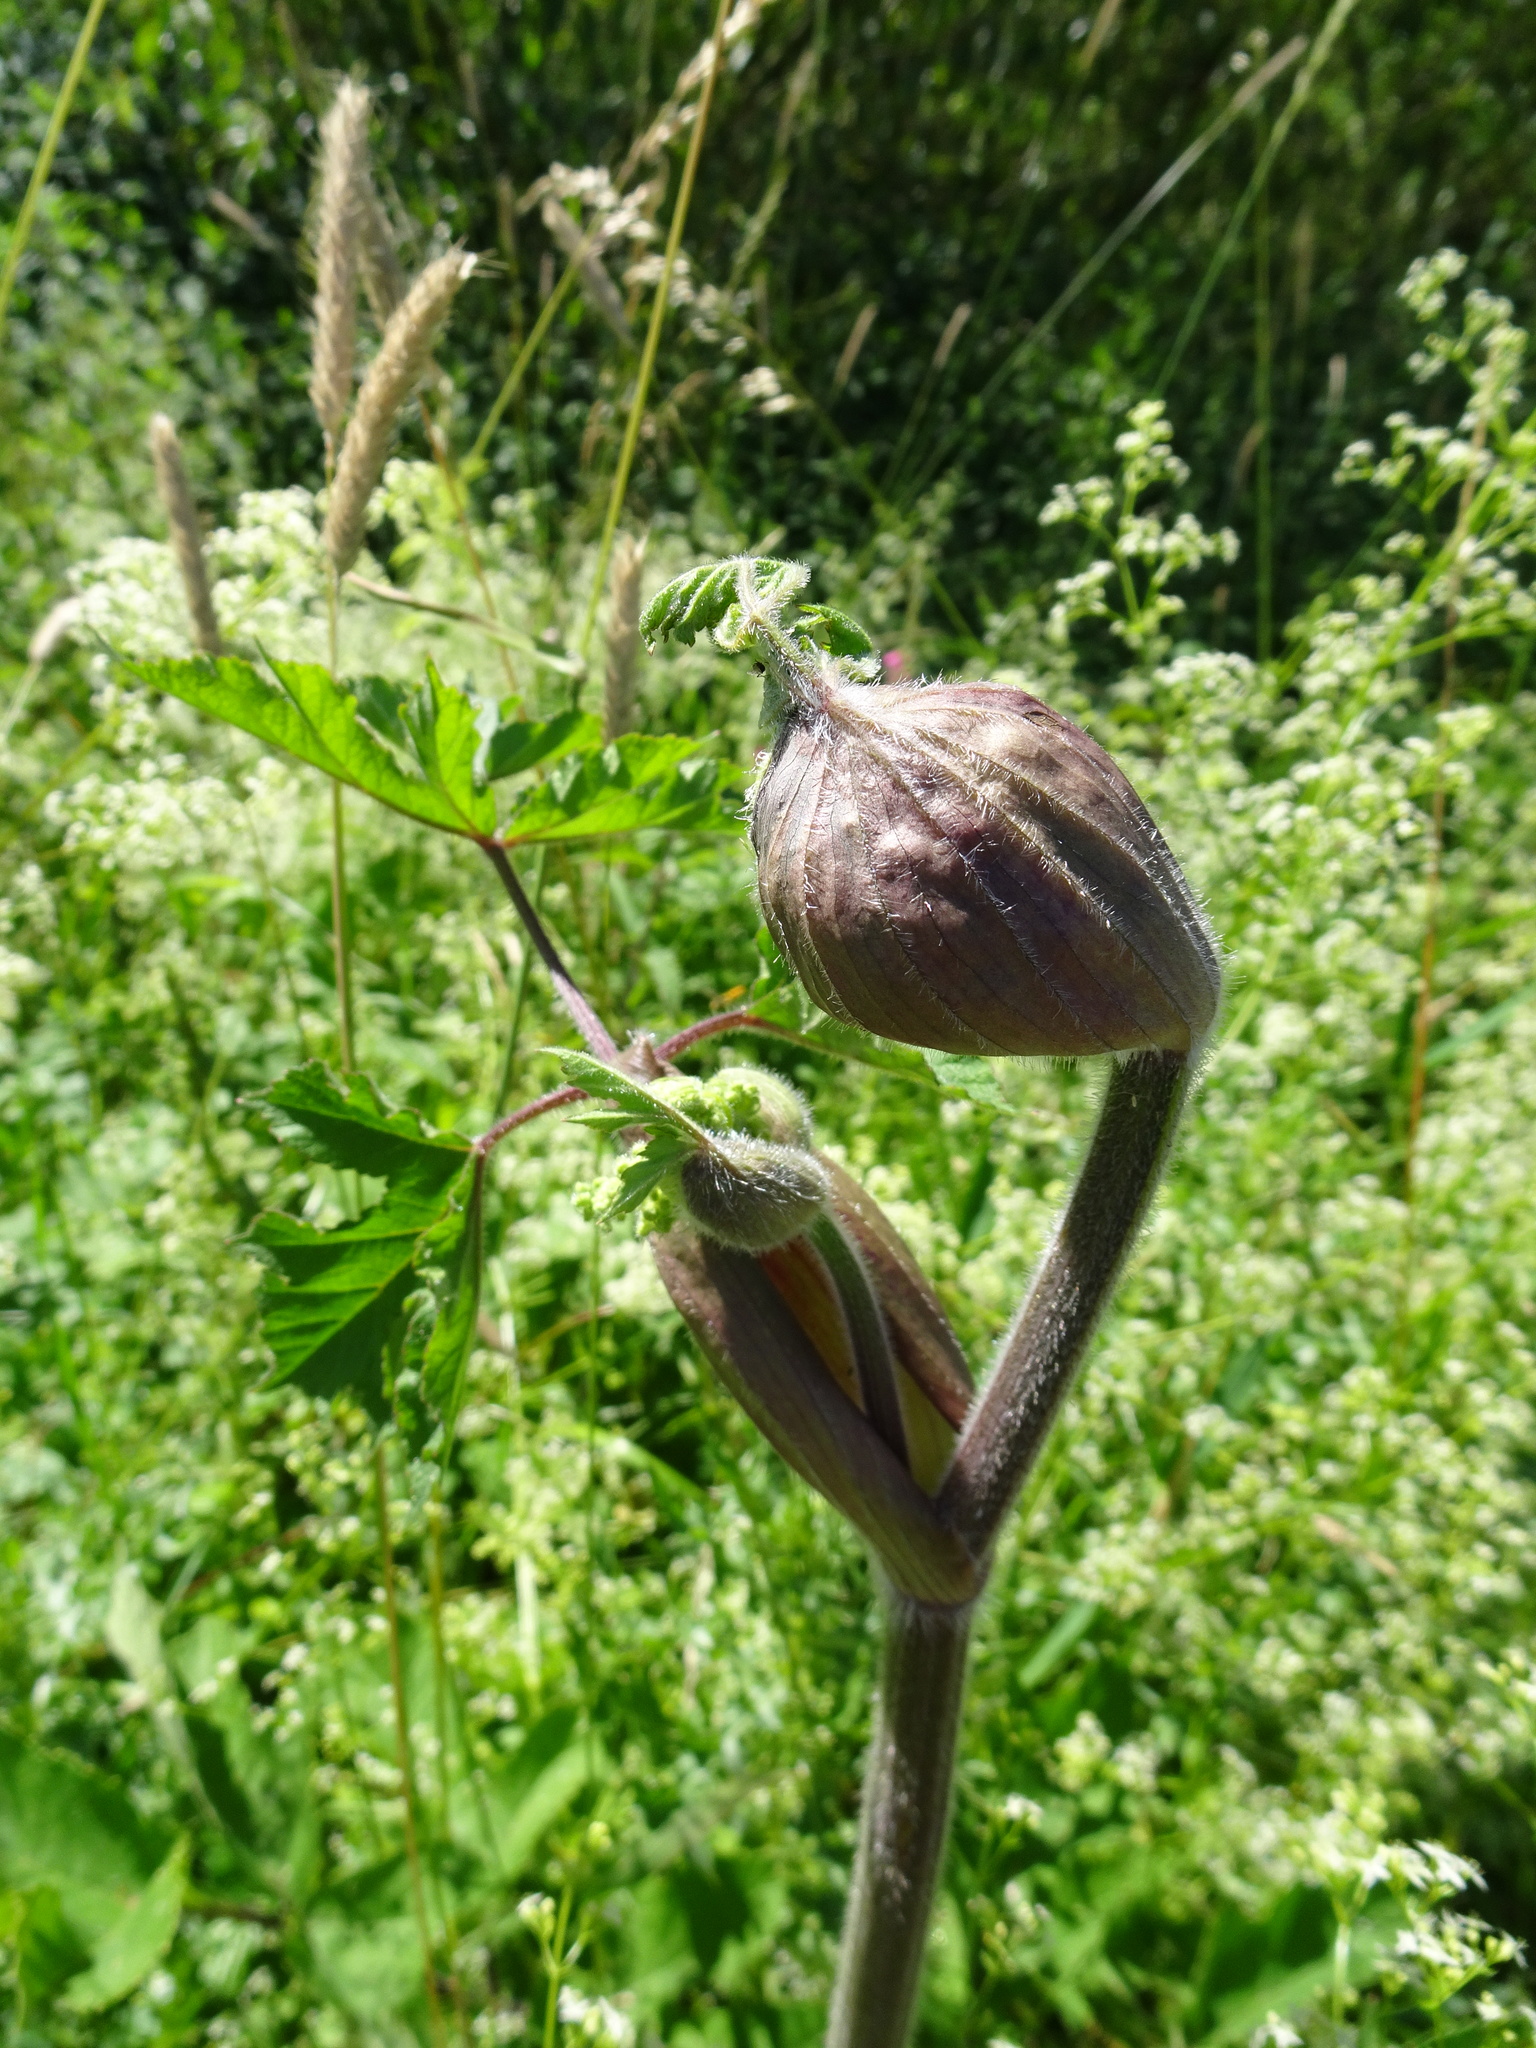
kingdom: Plantae
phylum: Tracheophyta
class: Magnoliopsida
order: Apiales
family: Apiaceae
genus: Heracleum
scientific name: Heracleum sphondylium
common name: Hogweed
